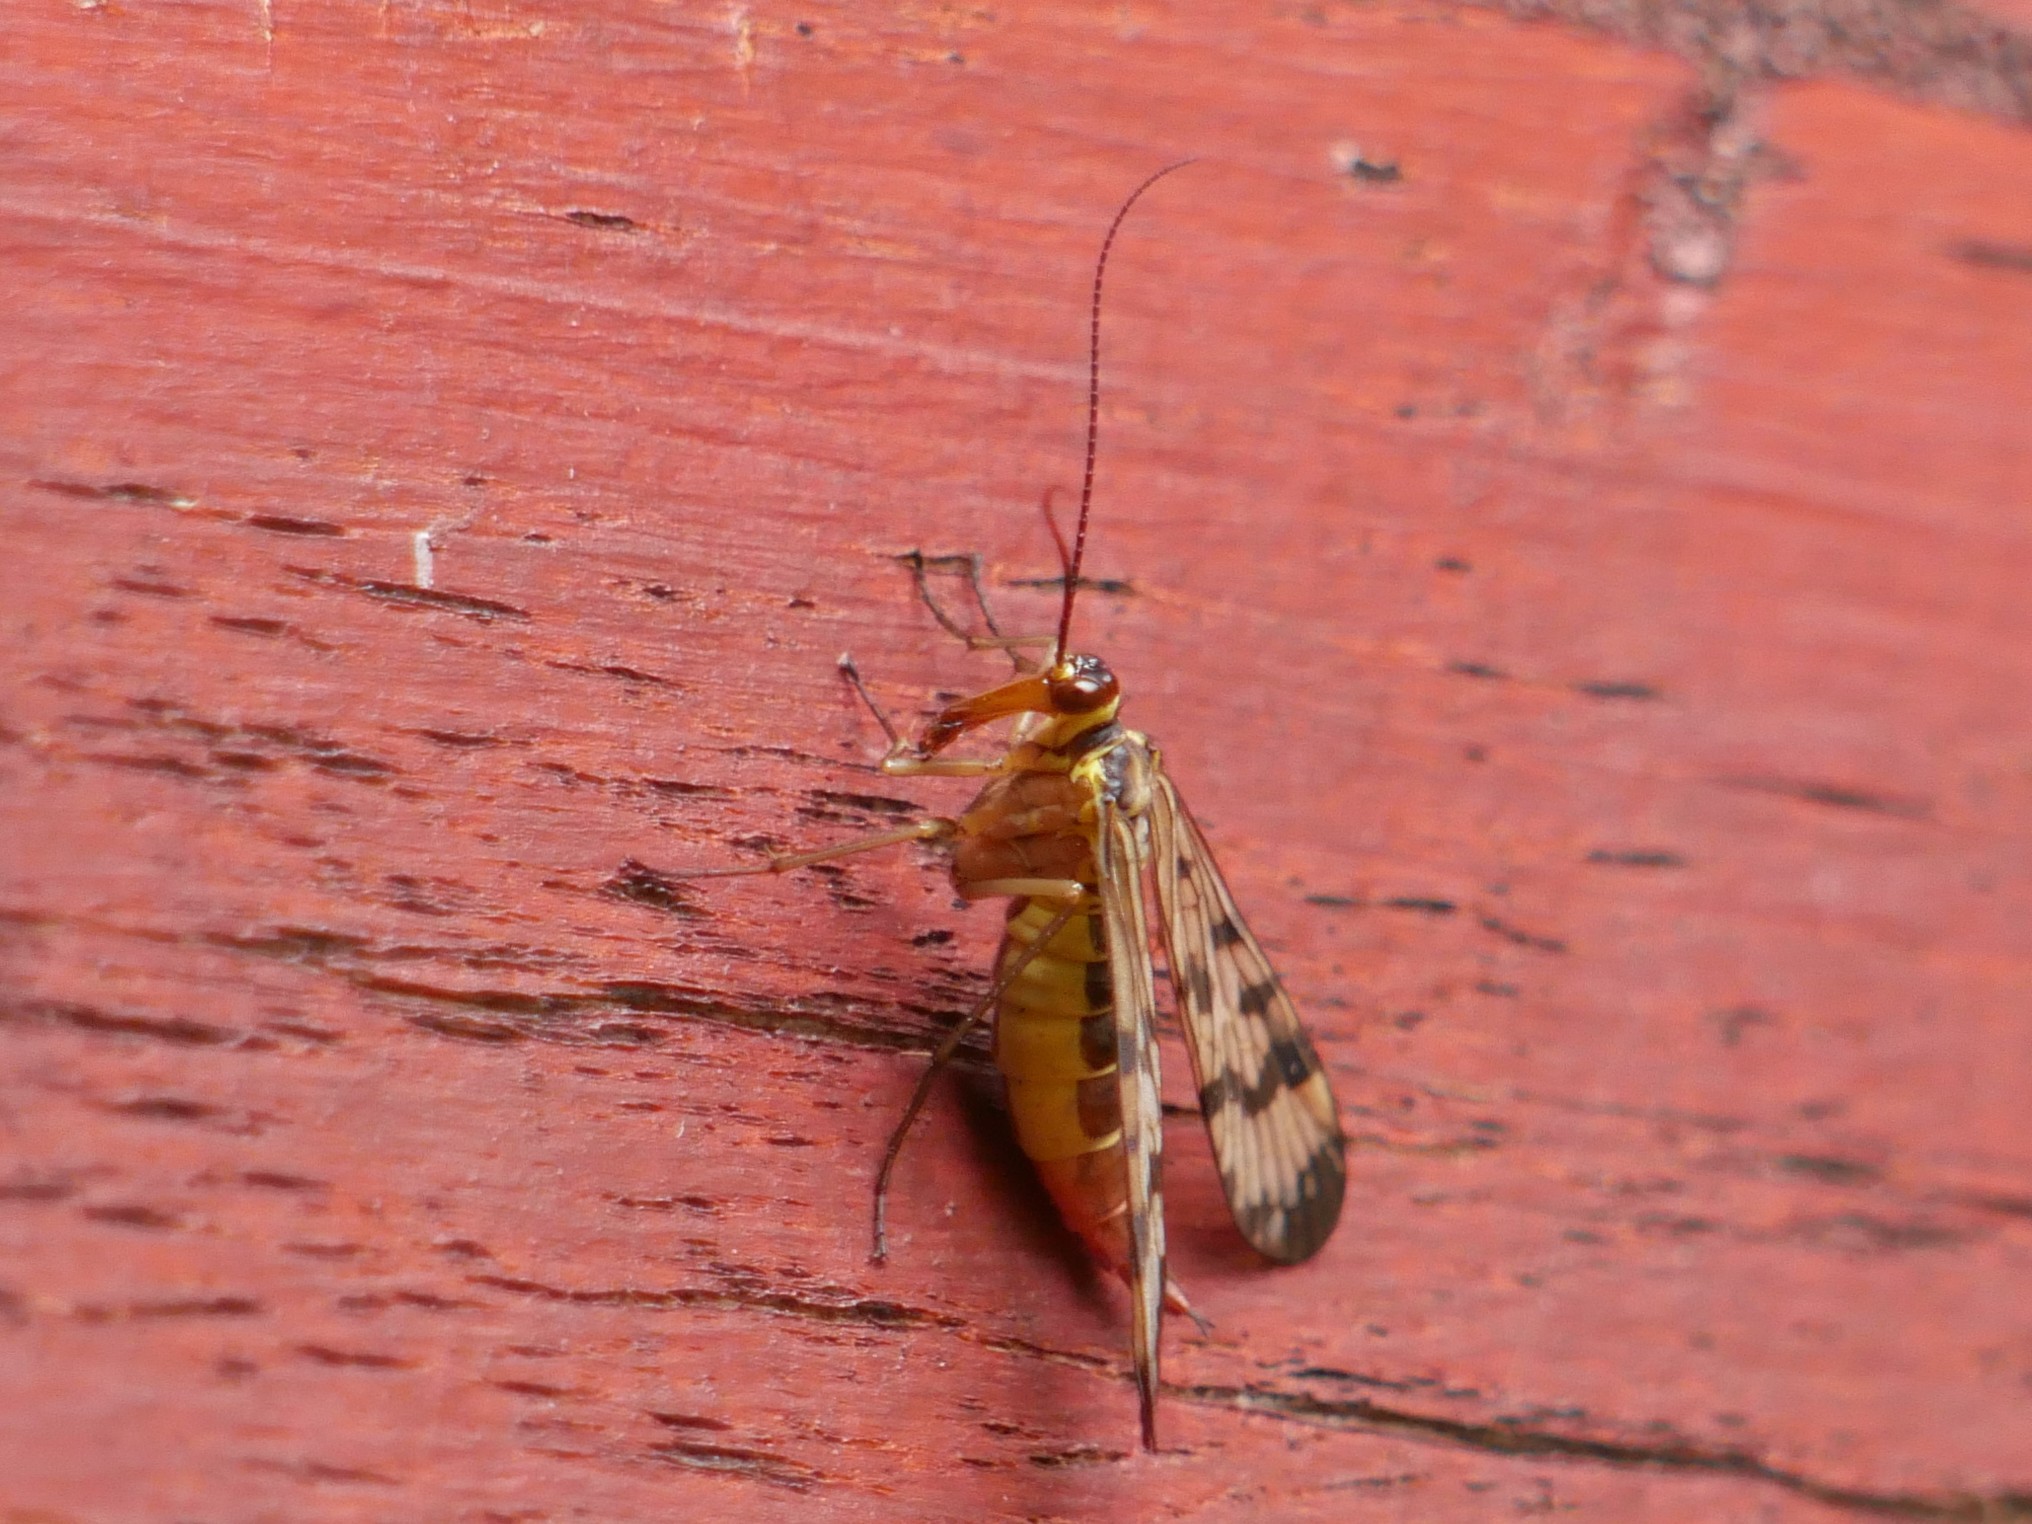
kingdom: Animalia
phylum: Arthropoda
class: Insecta
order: Mecoptera
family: Panorpidae
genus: Panorpa
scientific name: Panorpa communis
